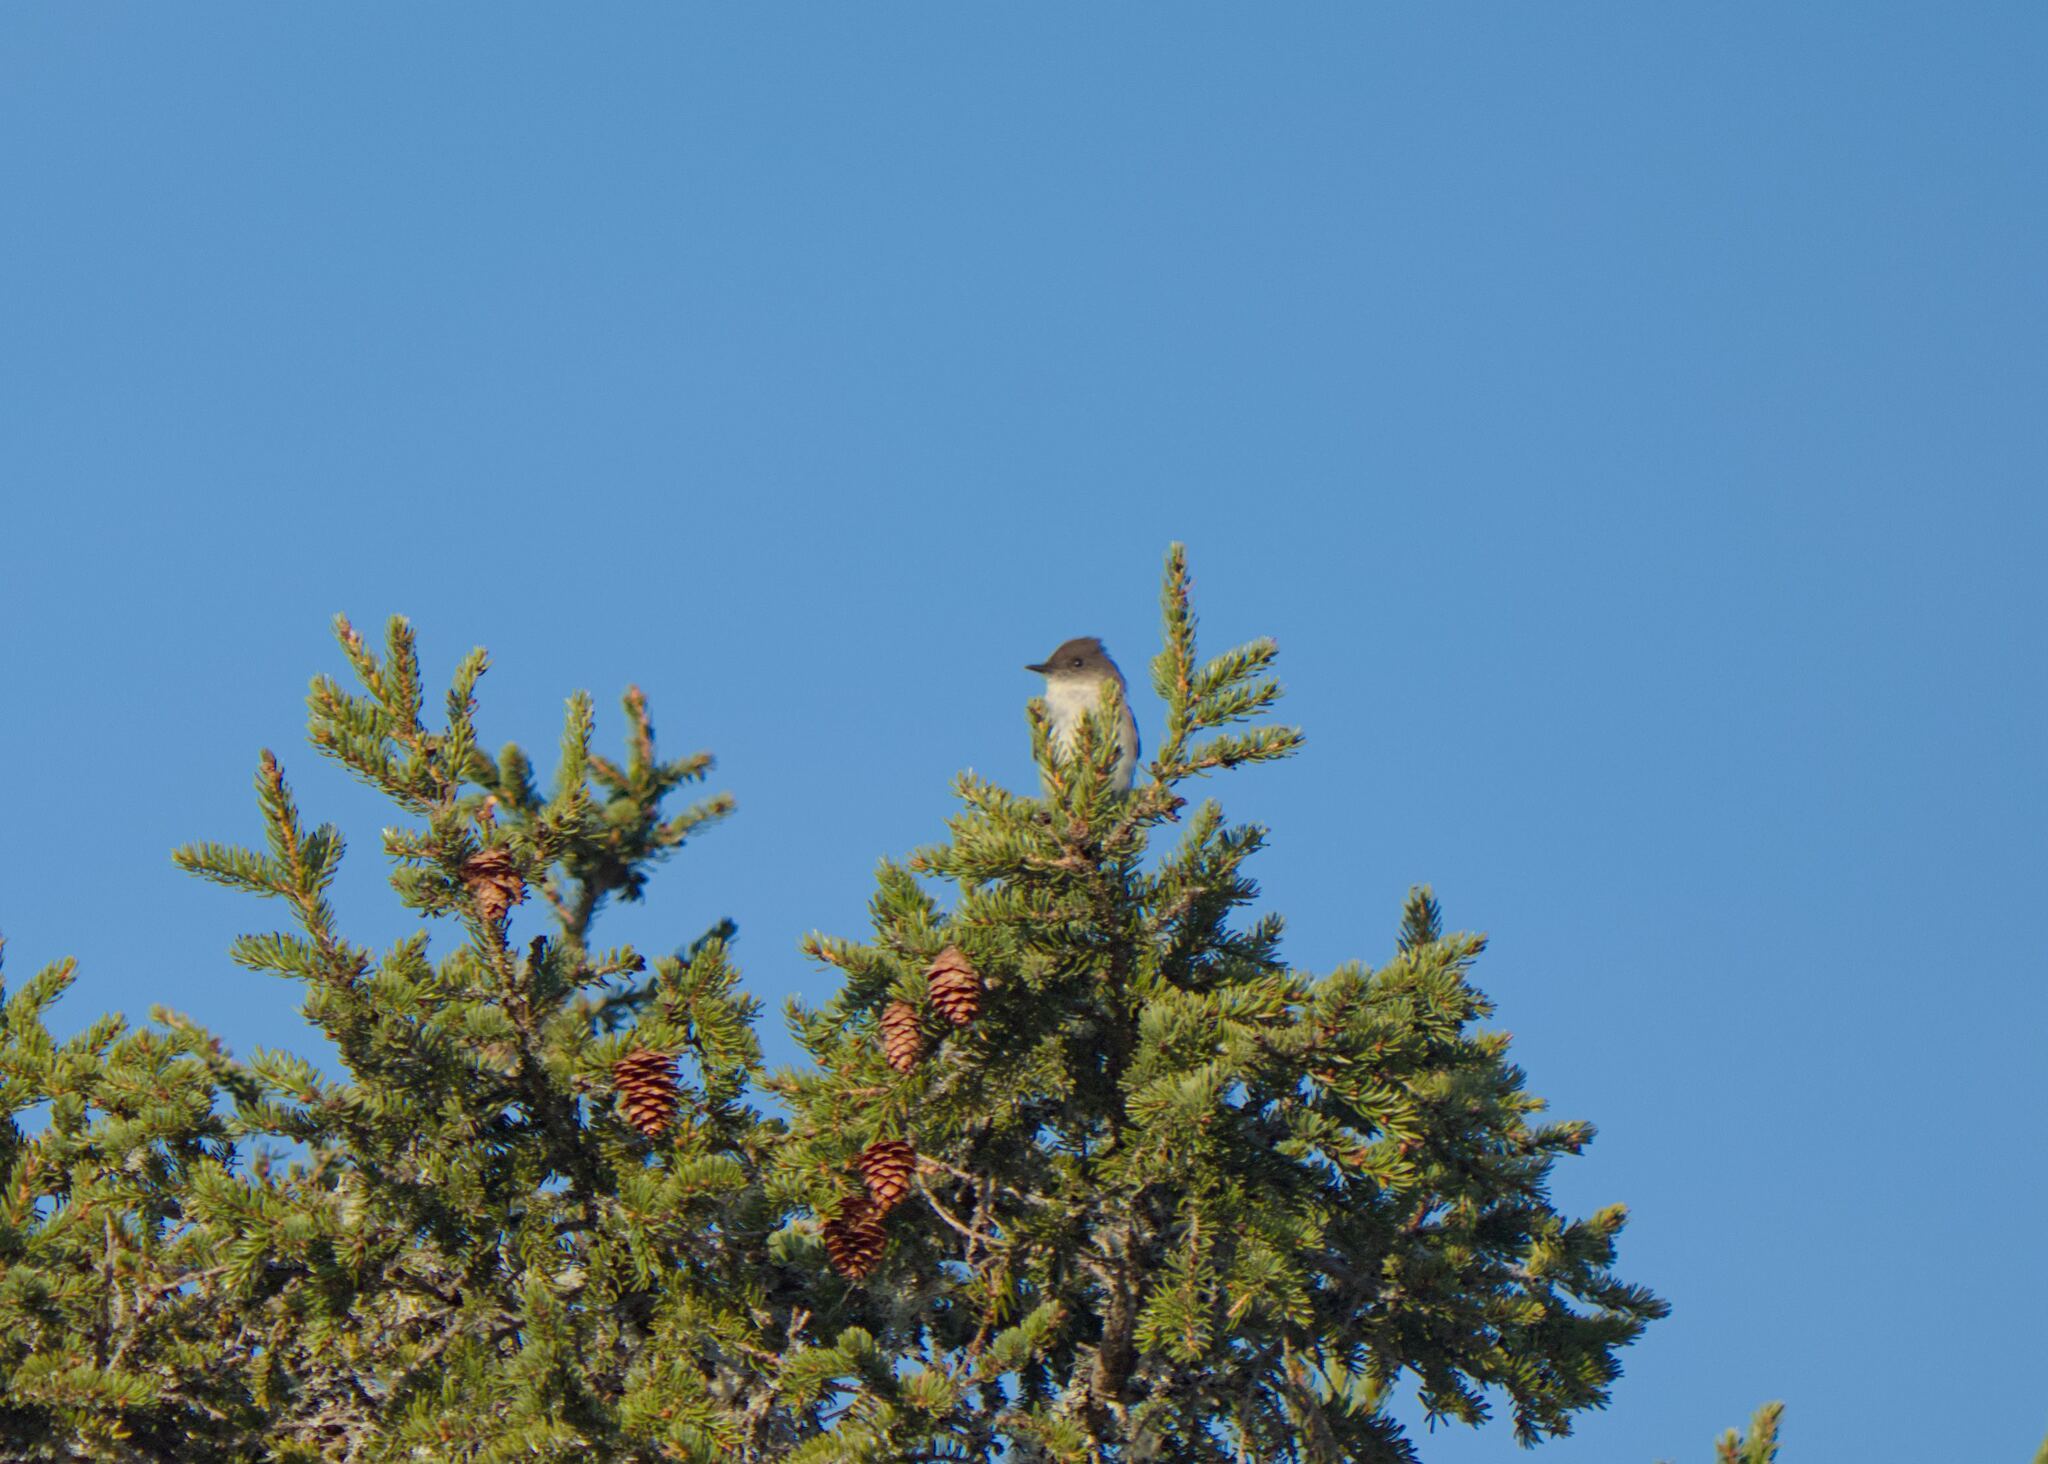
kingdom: Animalia
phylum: Chordata
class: Aves
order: Passeriformes
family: Tyrannidae
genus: Sayornis
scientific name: Sayornis phoebe
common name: Eastern phoebe
